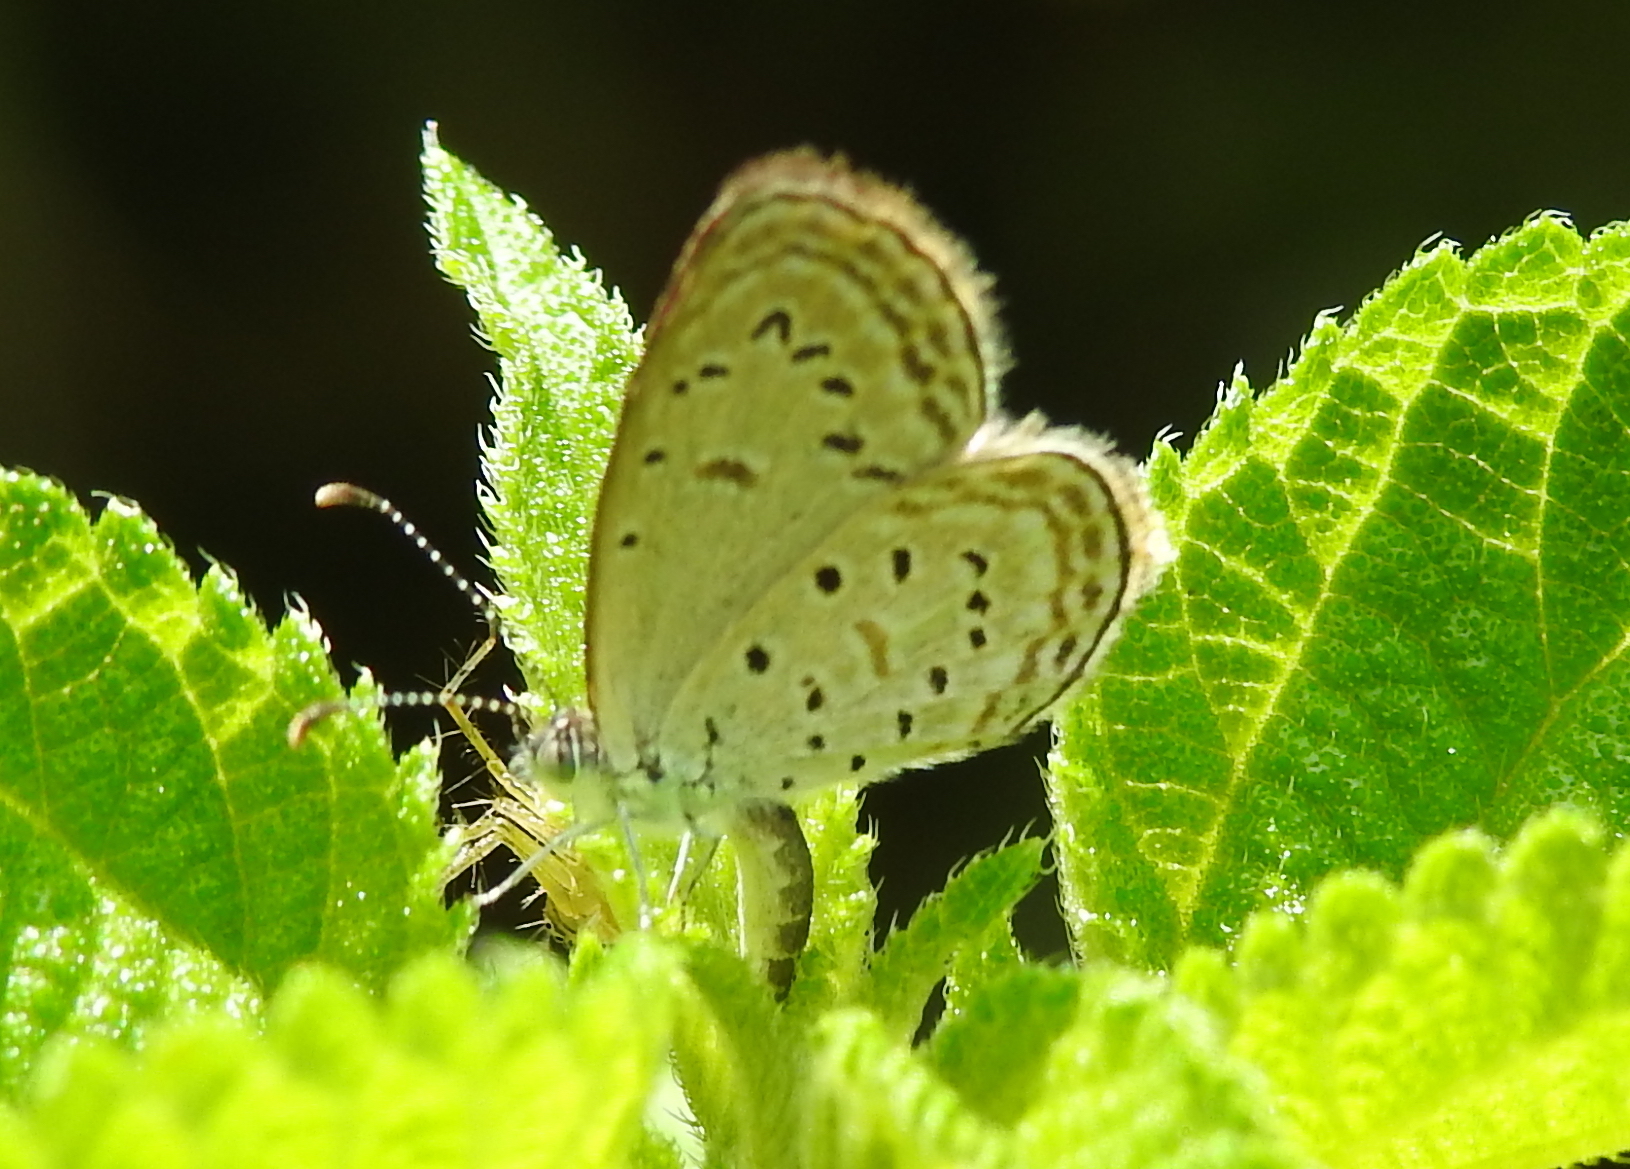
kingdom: Animalia
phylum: Arthropoda
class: Insecta
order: Lepidoptera
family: Lycaenidae
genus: Zizula
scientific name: Zizula hylax
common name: Gaika blue
